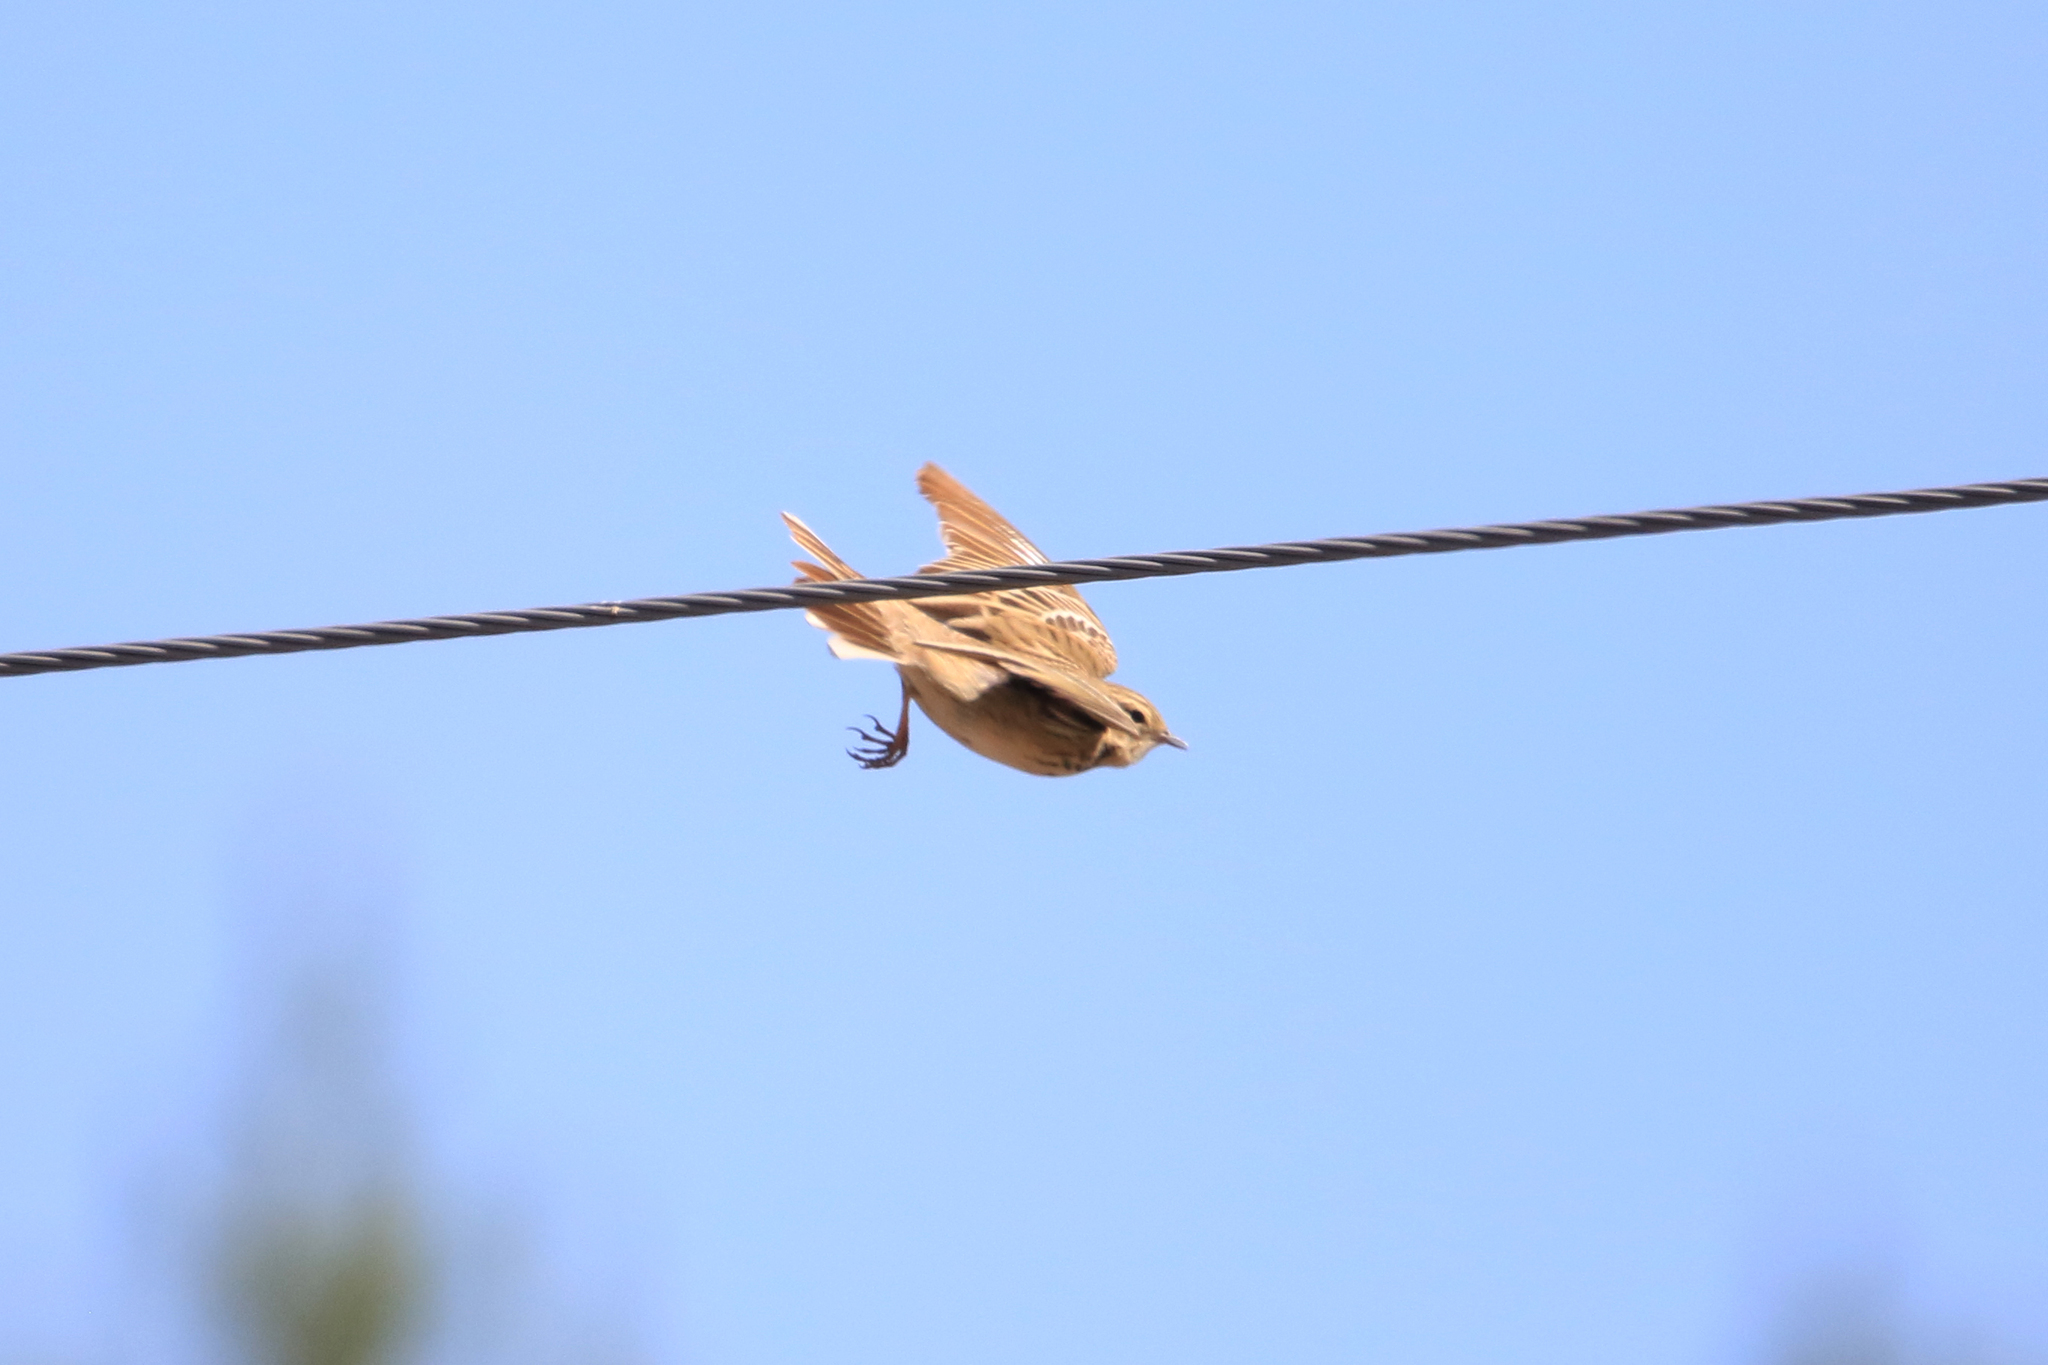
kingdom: Animalia
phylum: Chordata
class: Aves
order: Passeriformes
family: Motacillidae
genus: Anthus
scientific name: Anthus trivialis
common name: Tree pipit
